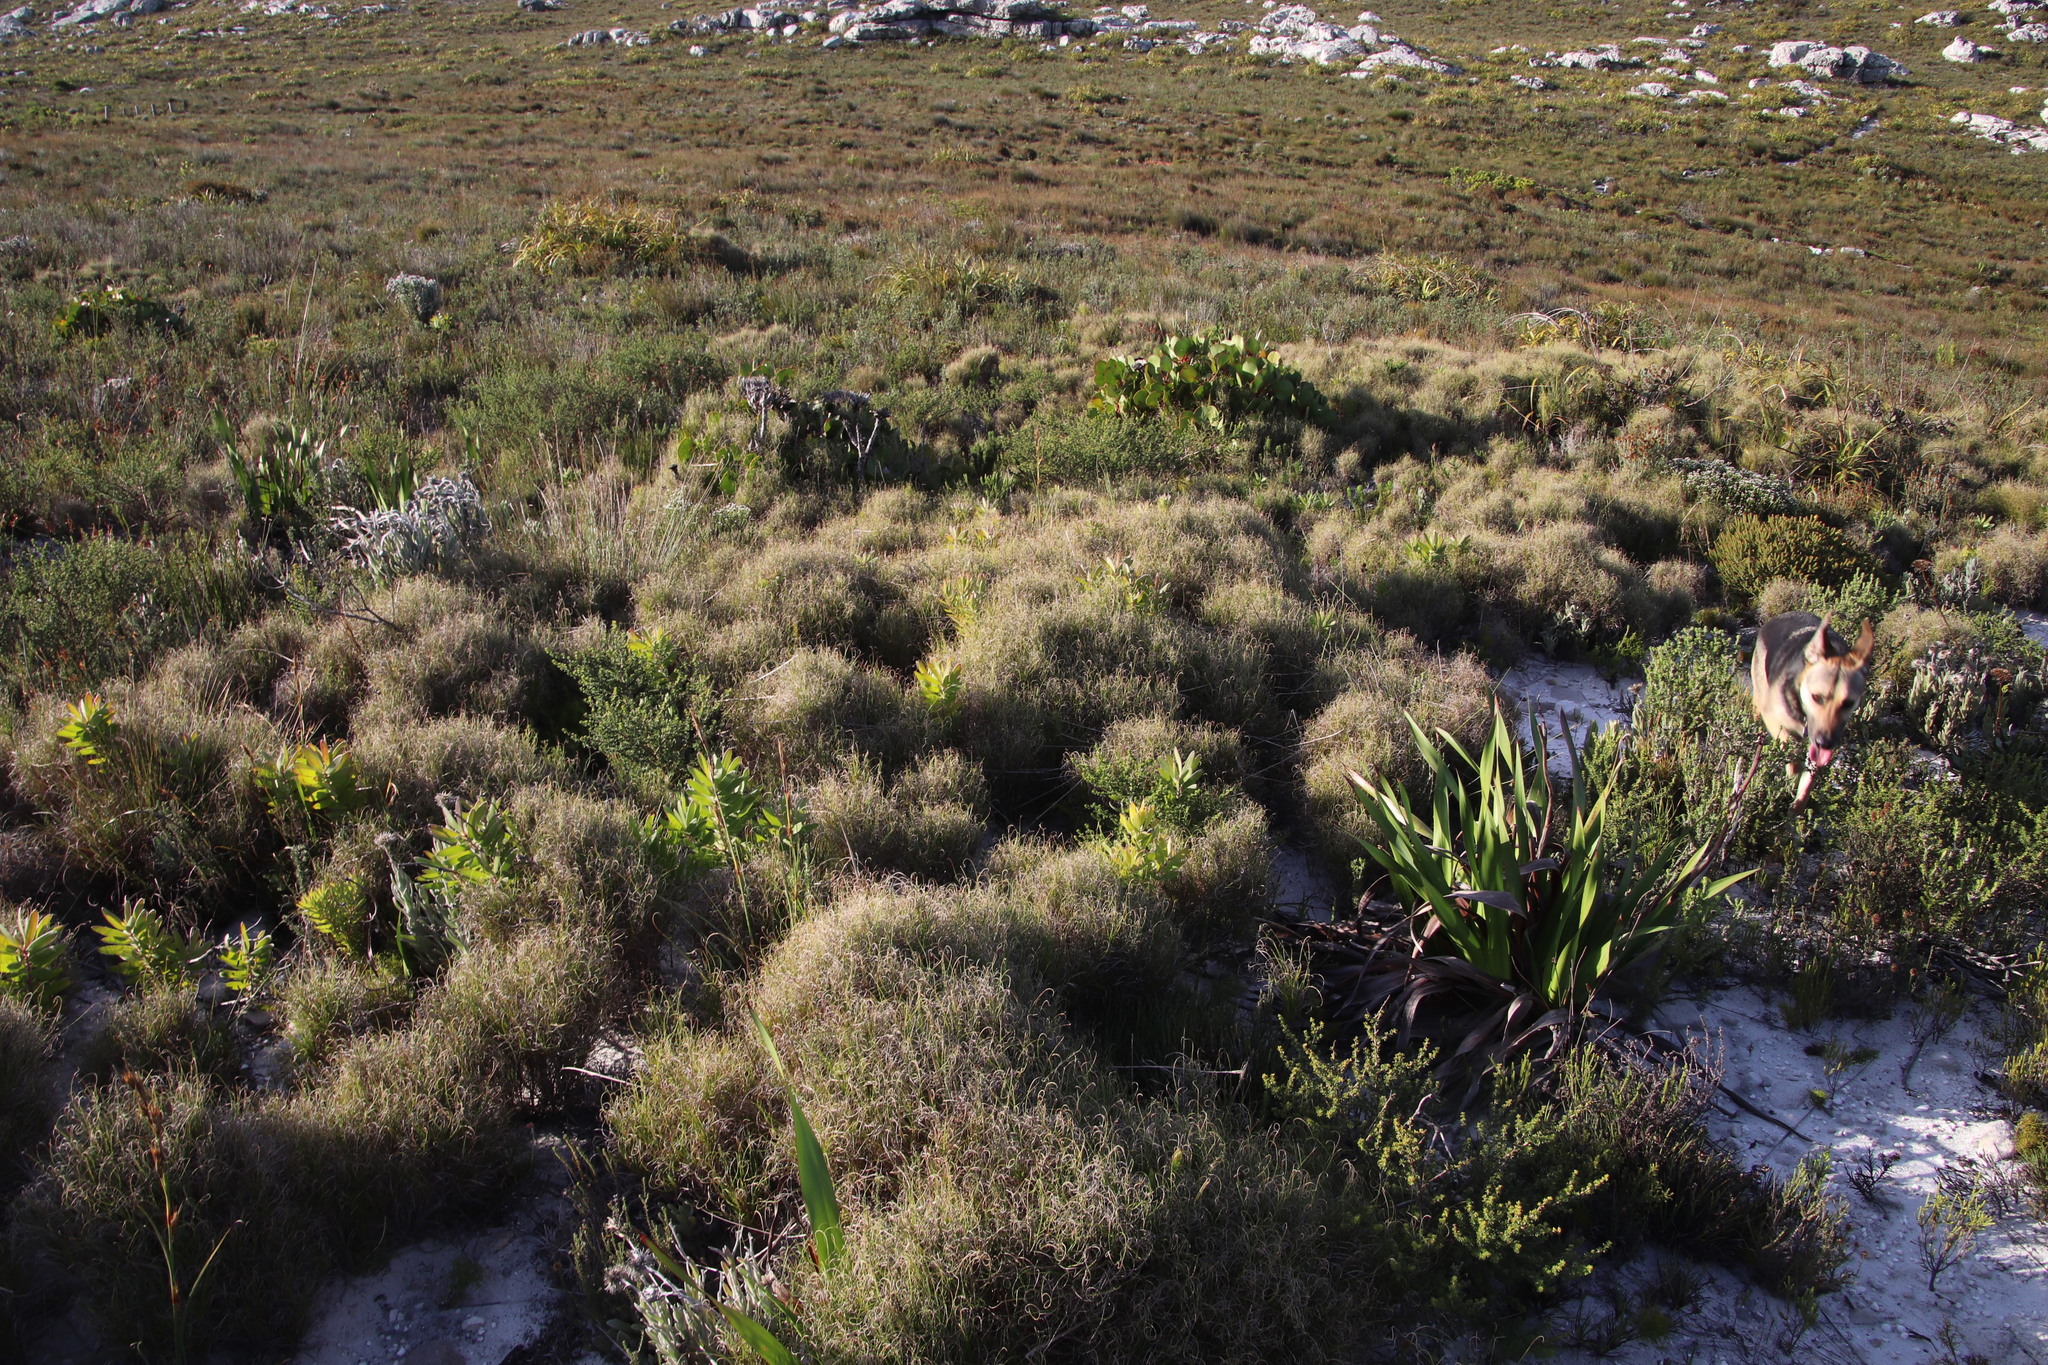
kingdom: Plantae
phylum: Tracheophyta
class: Liliopsida
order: Poales
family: Poaceae
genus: Pseudopentameris
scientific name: Pseudopentameris macrantha
